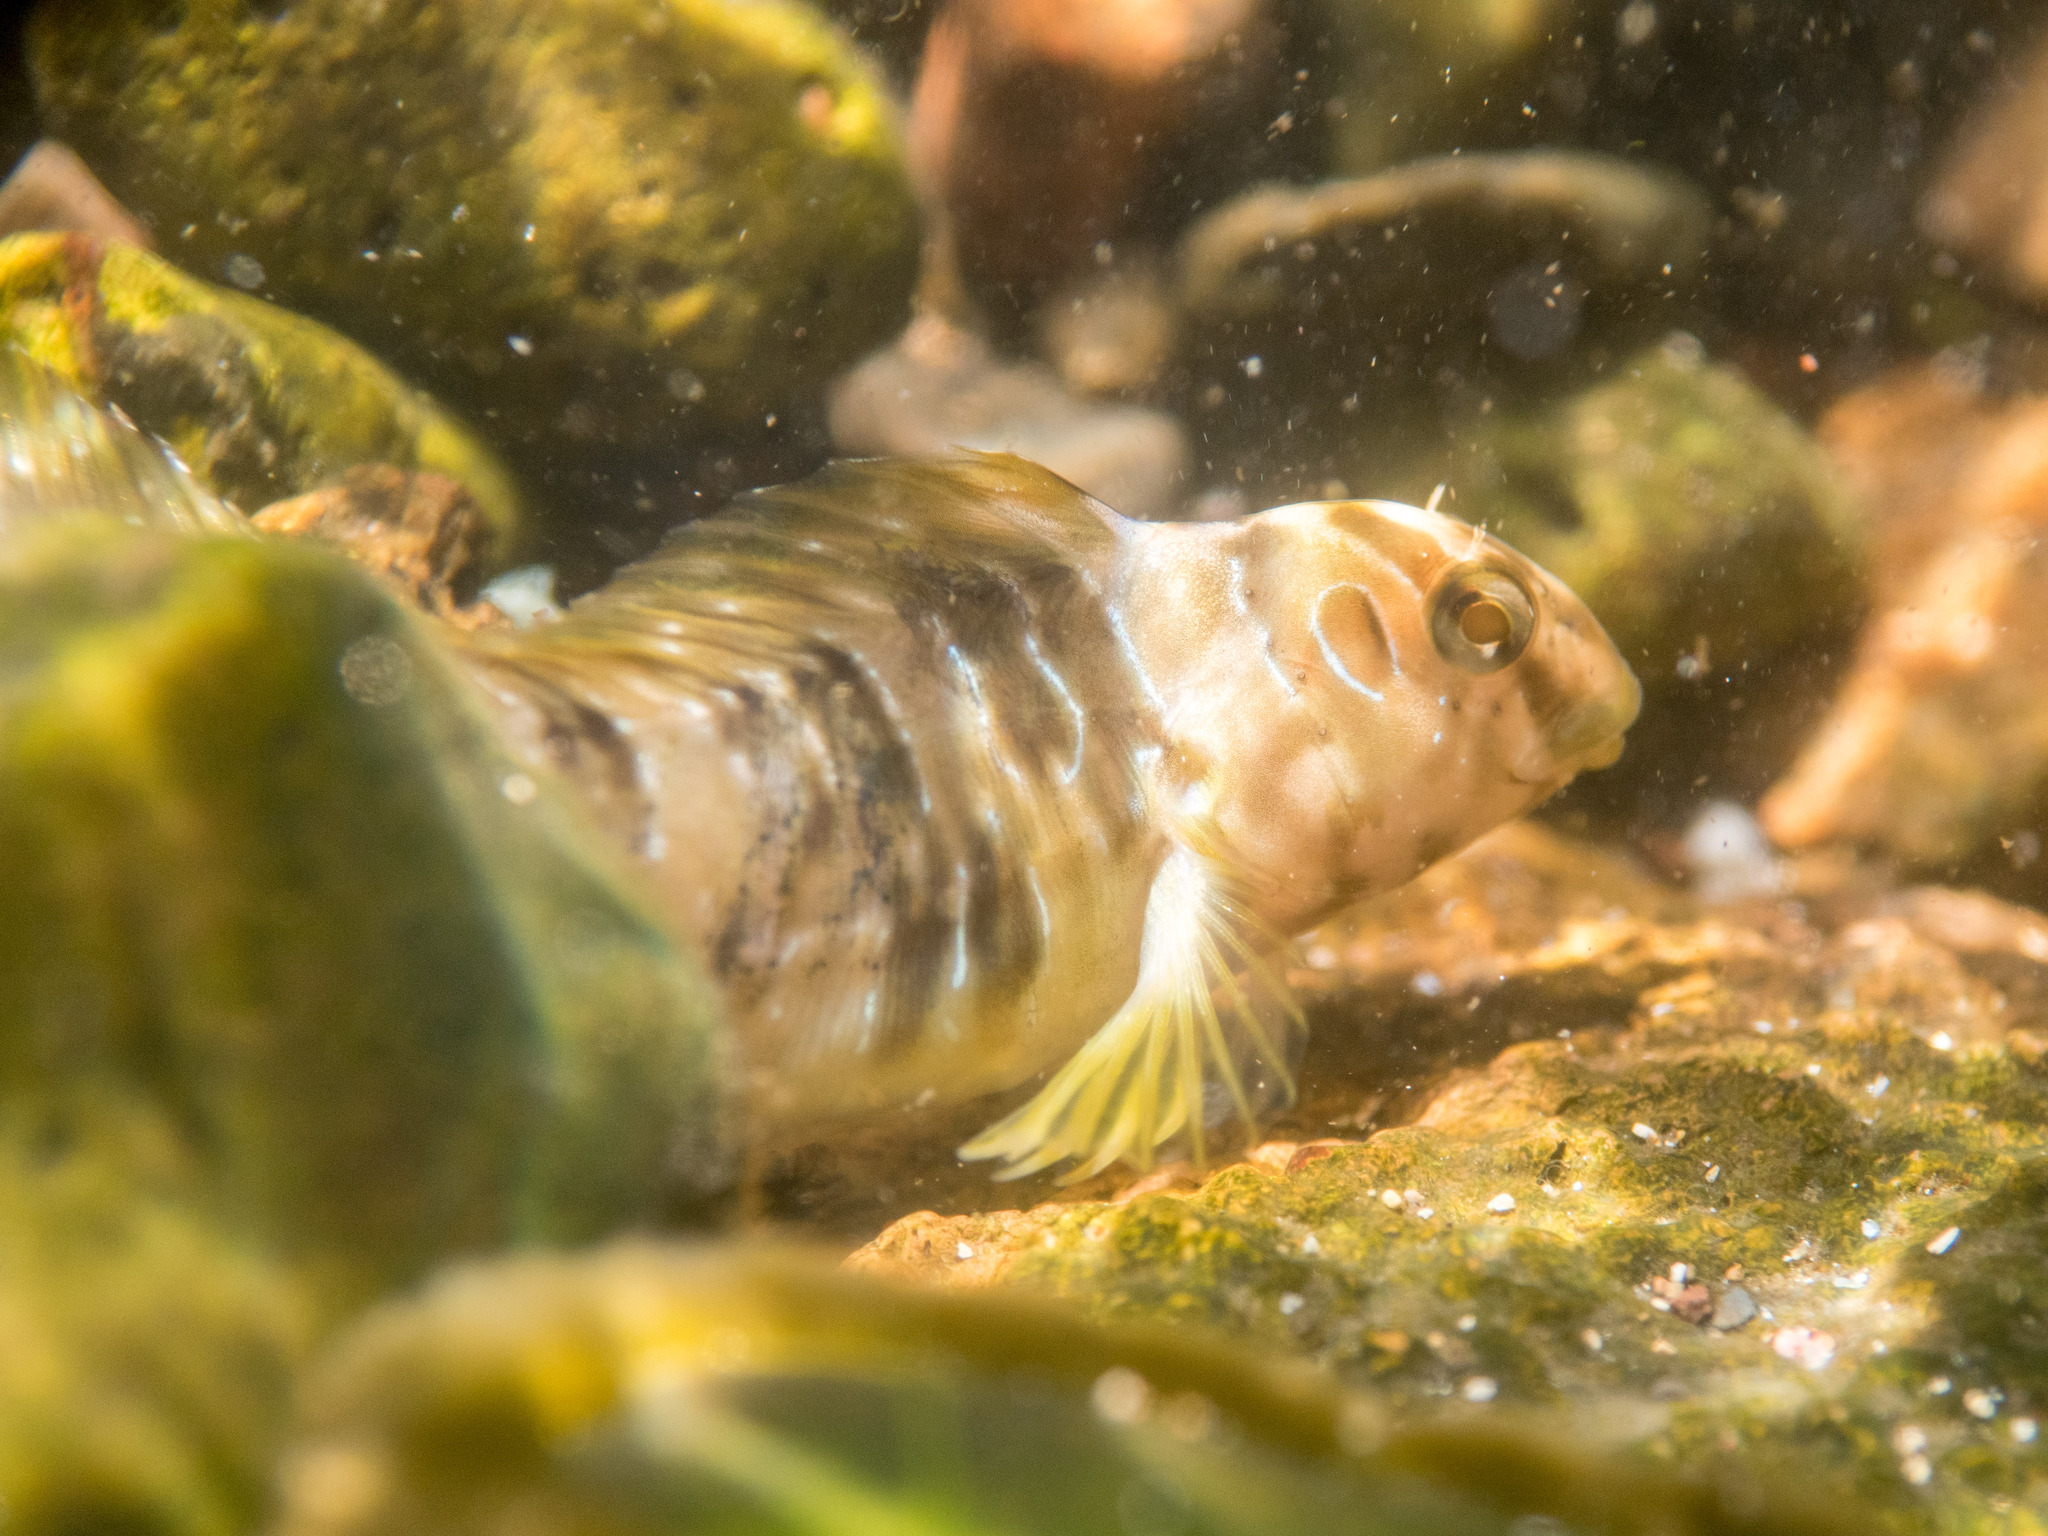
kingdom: Animalia
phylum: Chordata
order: Perciformes
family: Blenniidae
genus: Salaria
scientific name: Salaria pavo
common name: Peacock blenny
